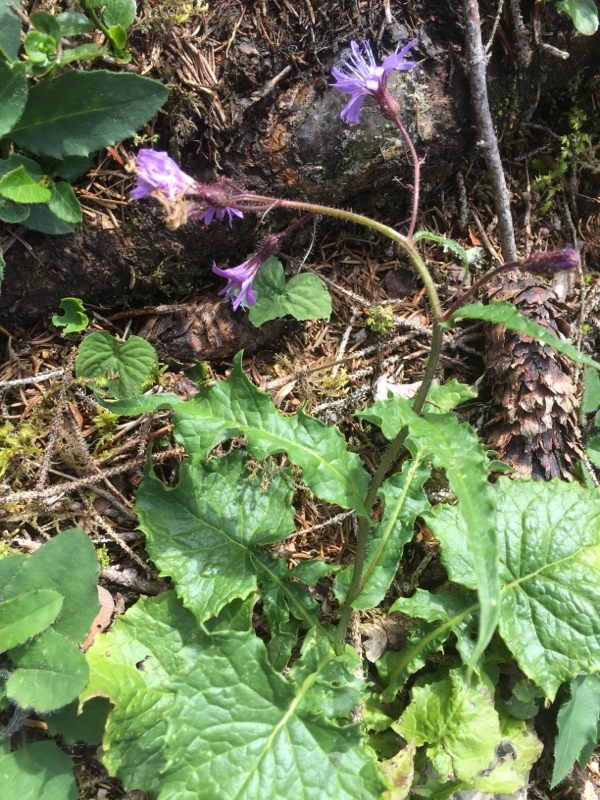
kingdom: Plantae
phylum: Tracheophyta
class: Magnoliopsida
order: Asterales
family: Asteraceae
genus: Cicerbita
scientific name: Cicerbita alpina
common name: Alpine blue-sow-thistle
